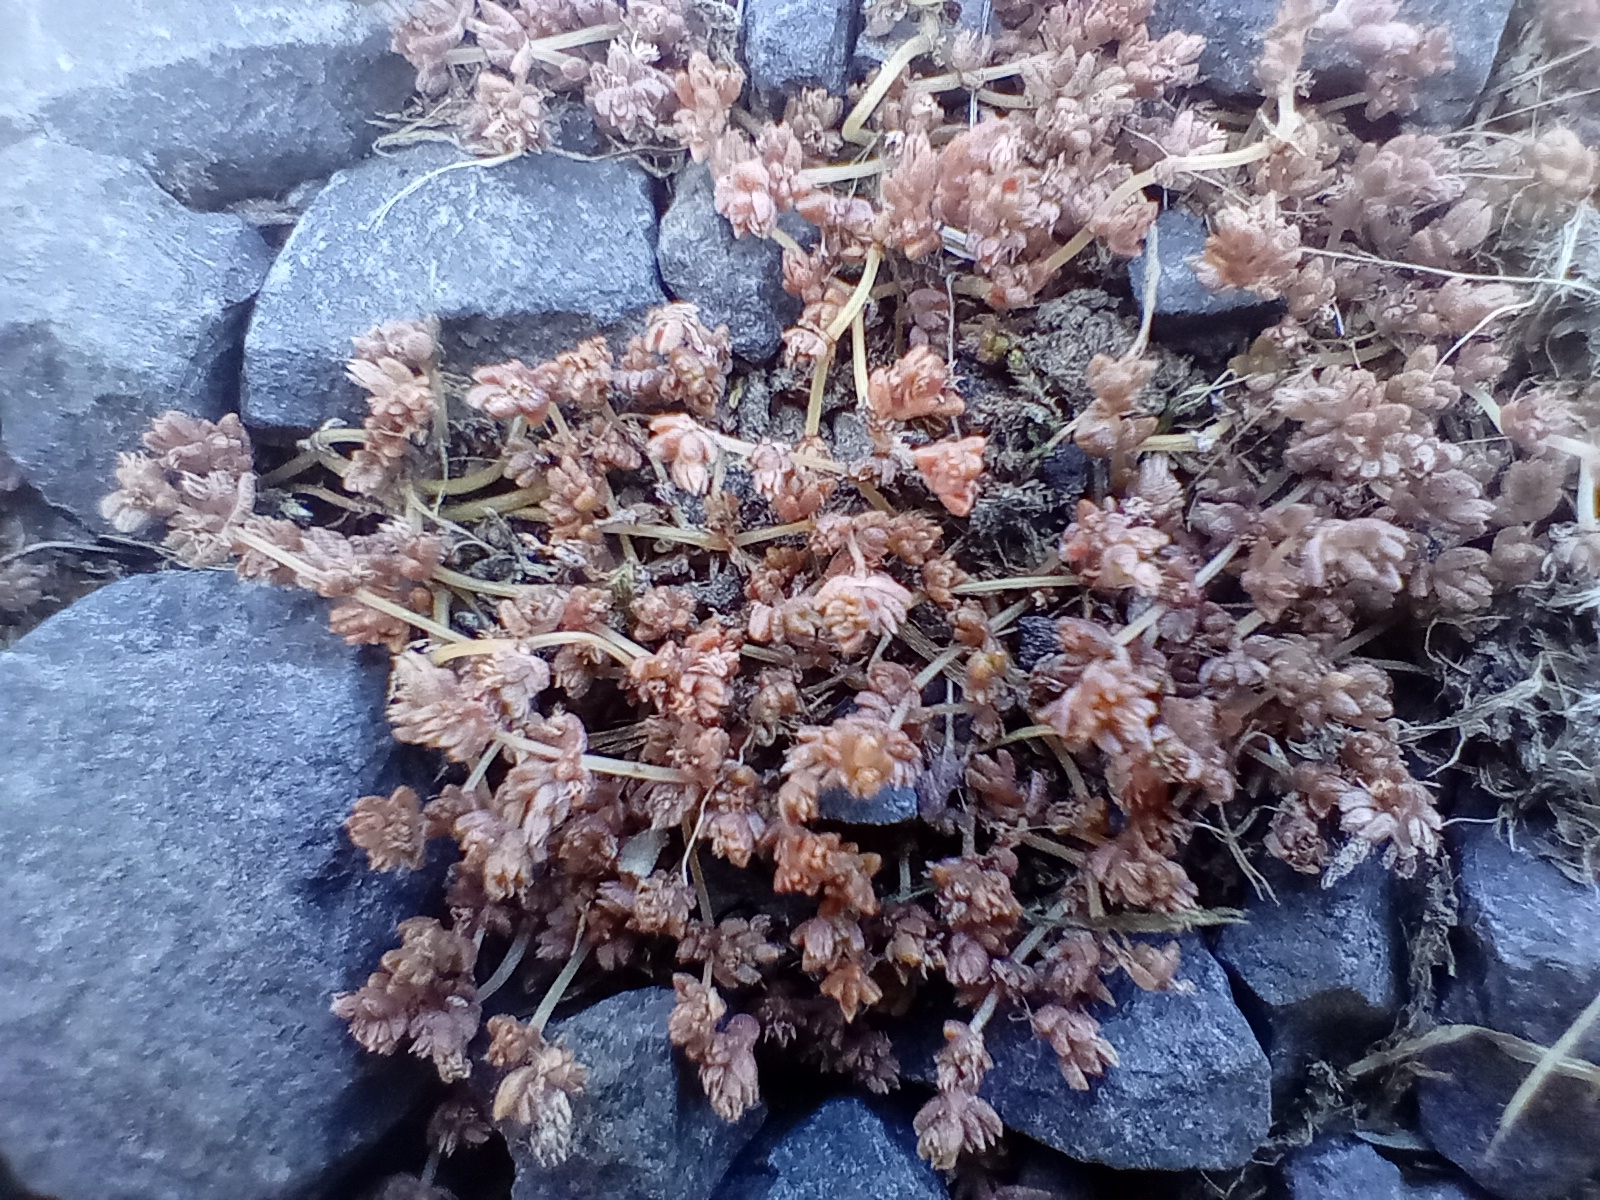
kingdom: Plantae
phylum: Tracheophyta
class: Magnoliopsida
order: Saxifragales
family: Crassulaceae
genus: Crassula
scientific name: Crassula mataikona
